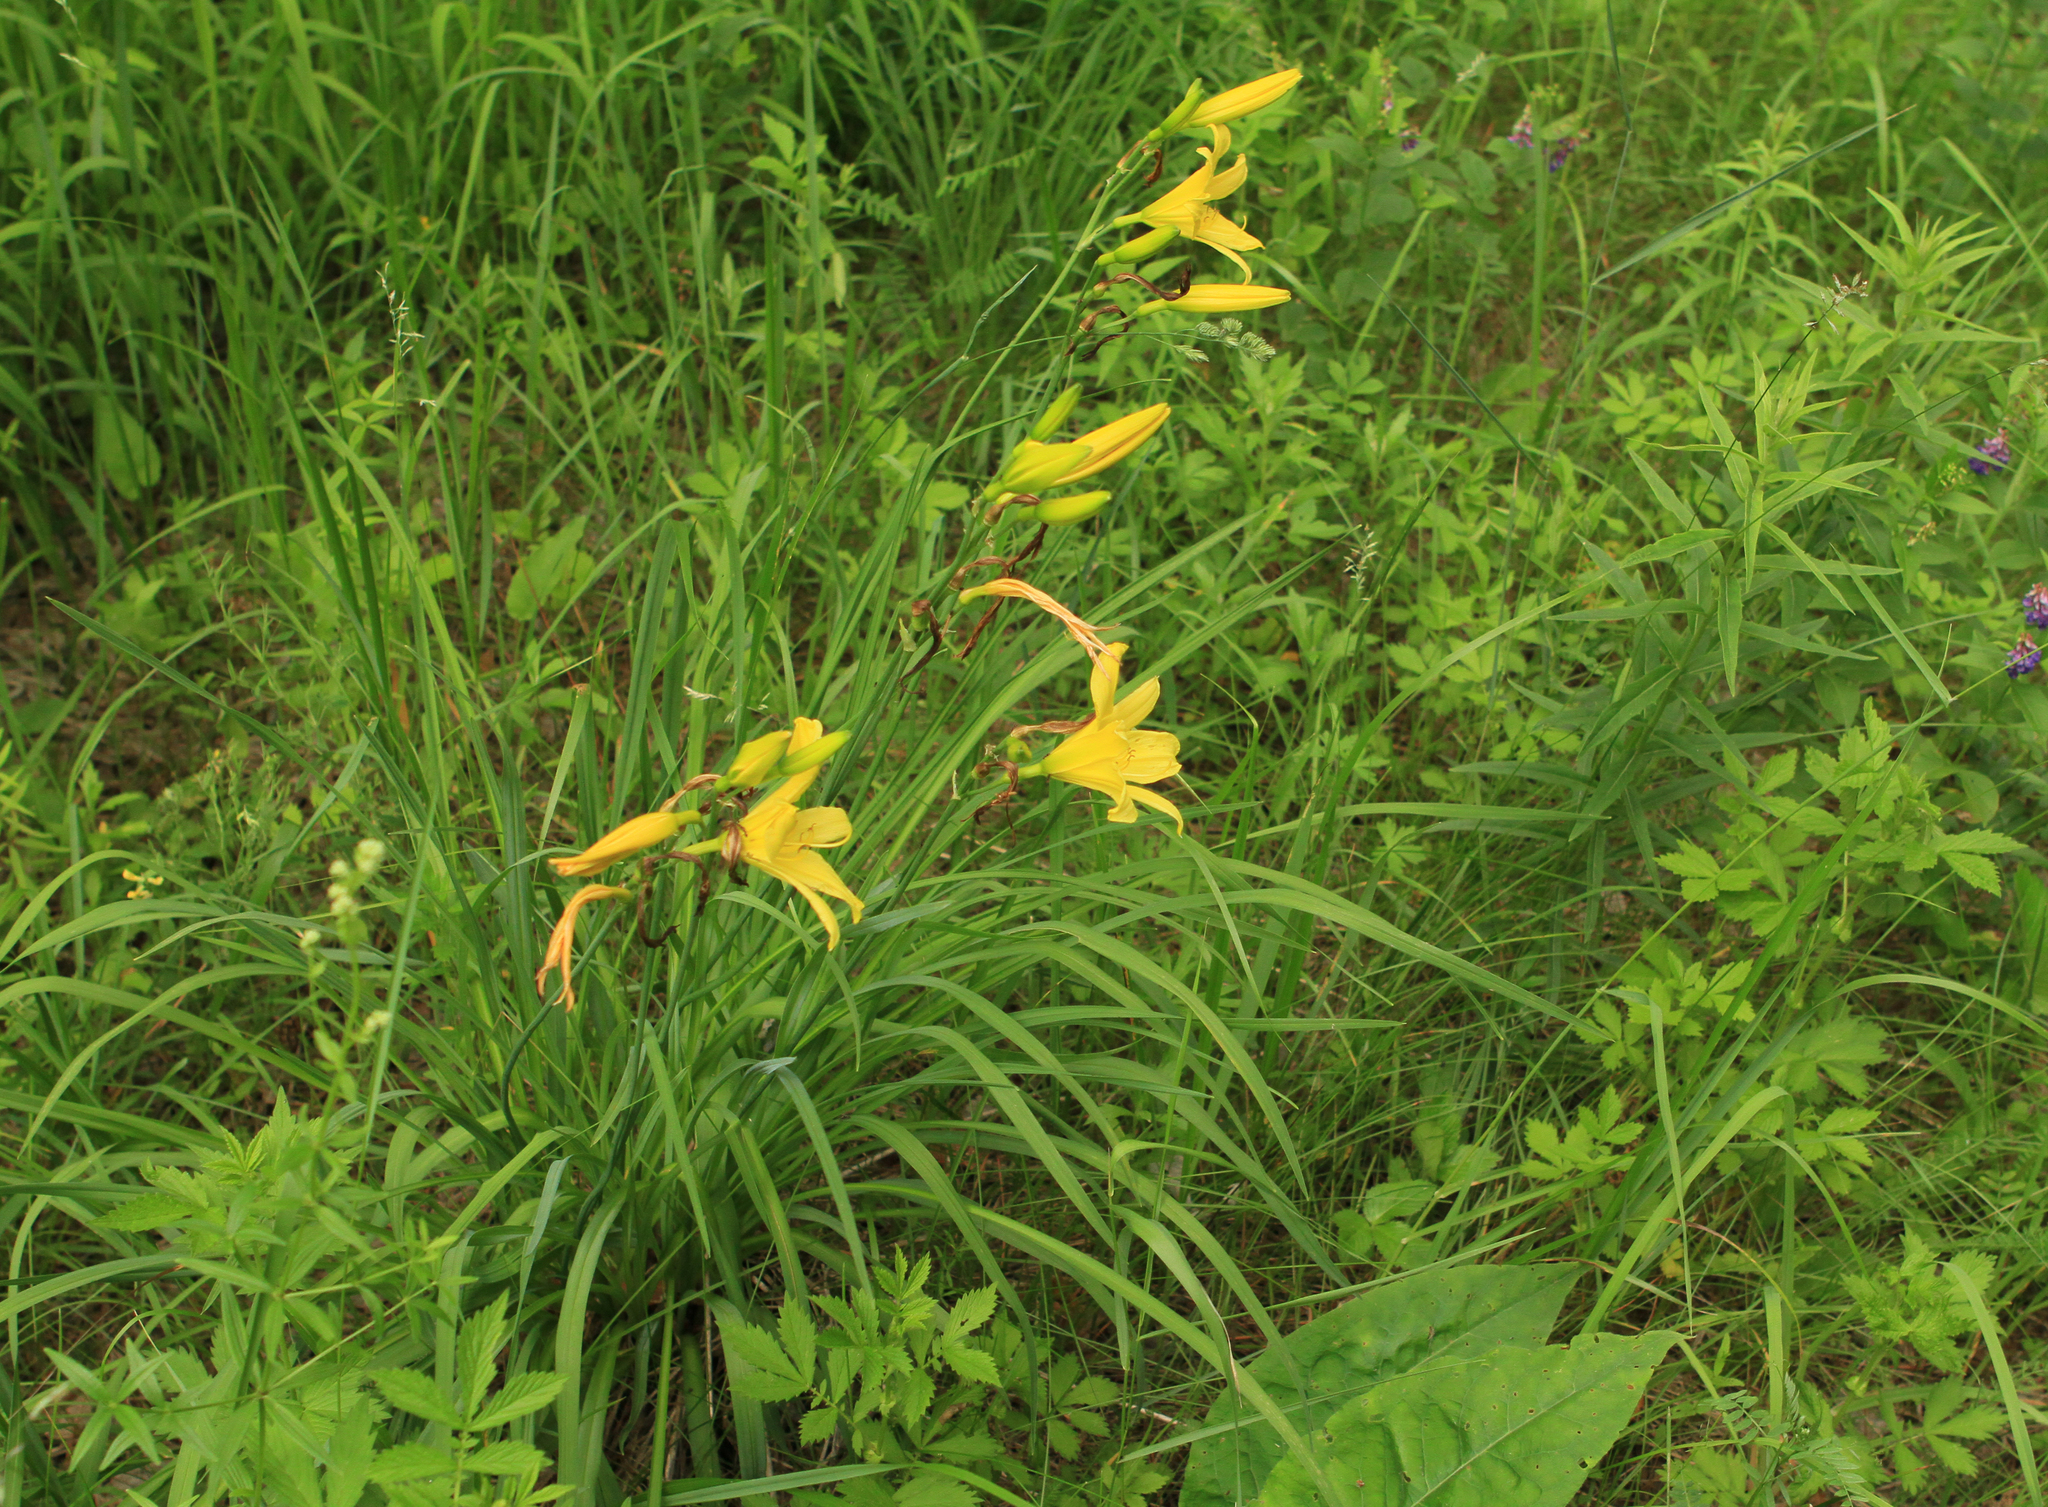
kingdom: Plantae
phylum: Tracheophyta
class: Liliopsida
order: Asparagales
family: Asphodelaceae
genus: Hemerocallis
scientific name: Hemerocallis minor
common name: Small daylily
